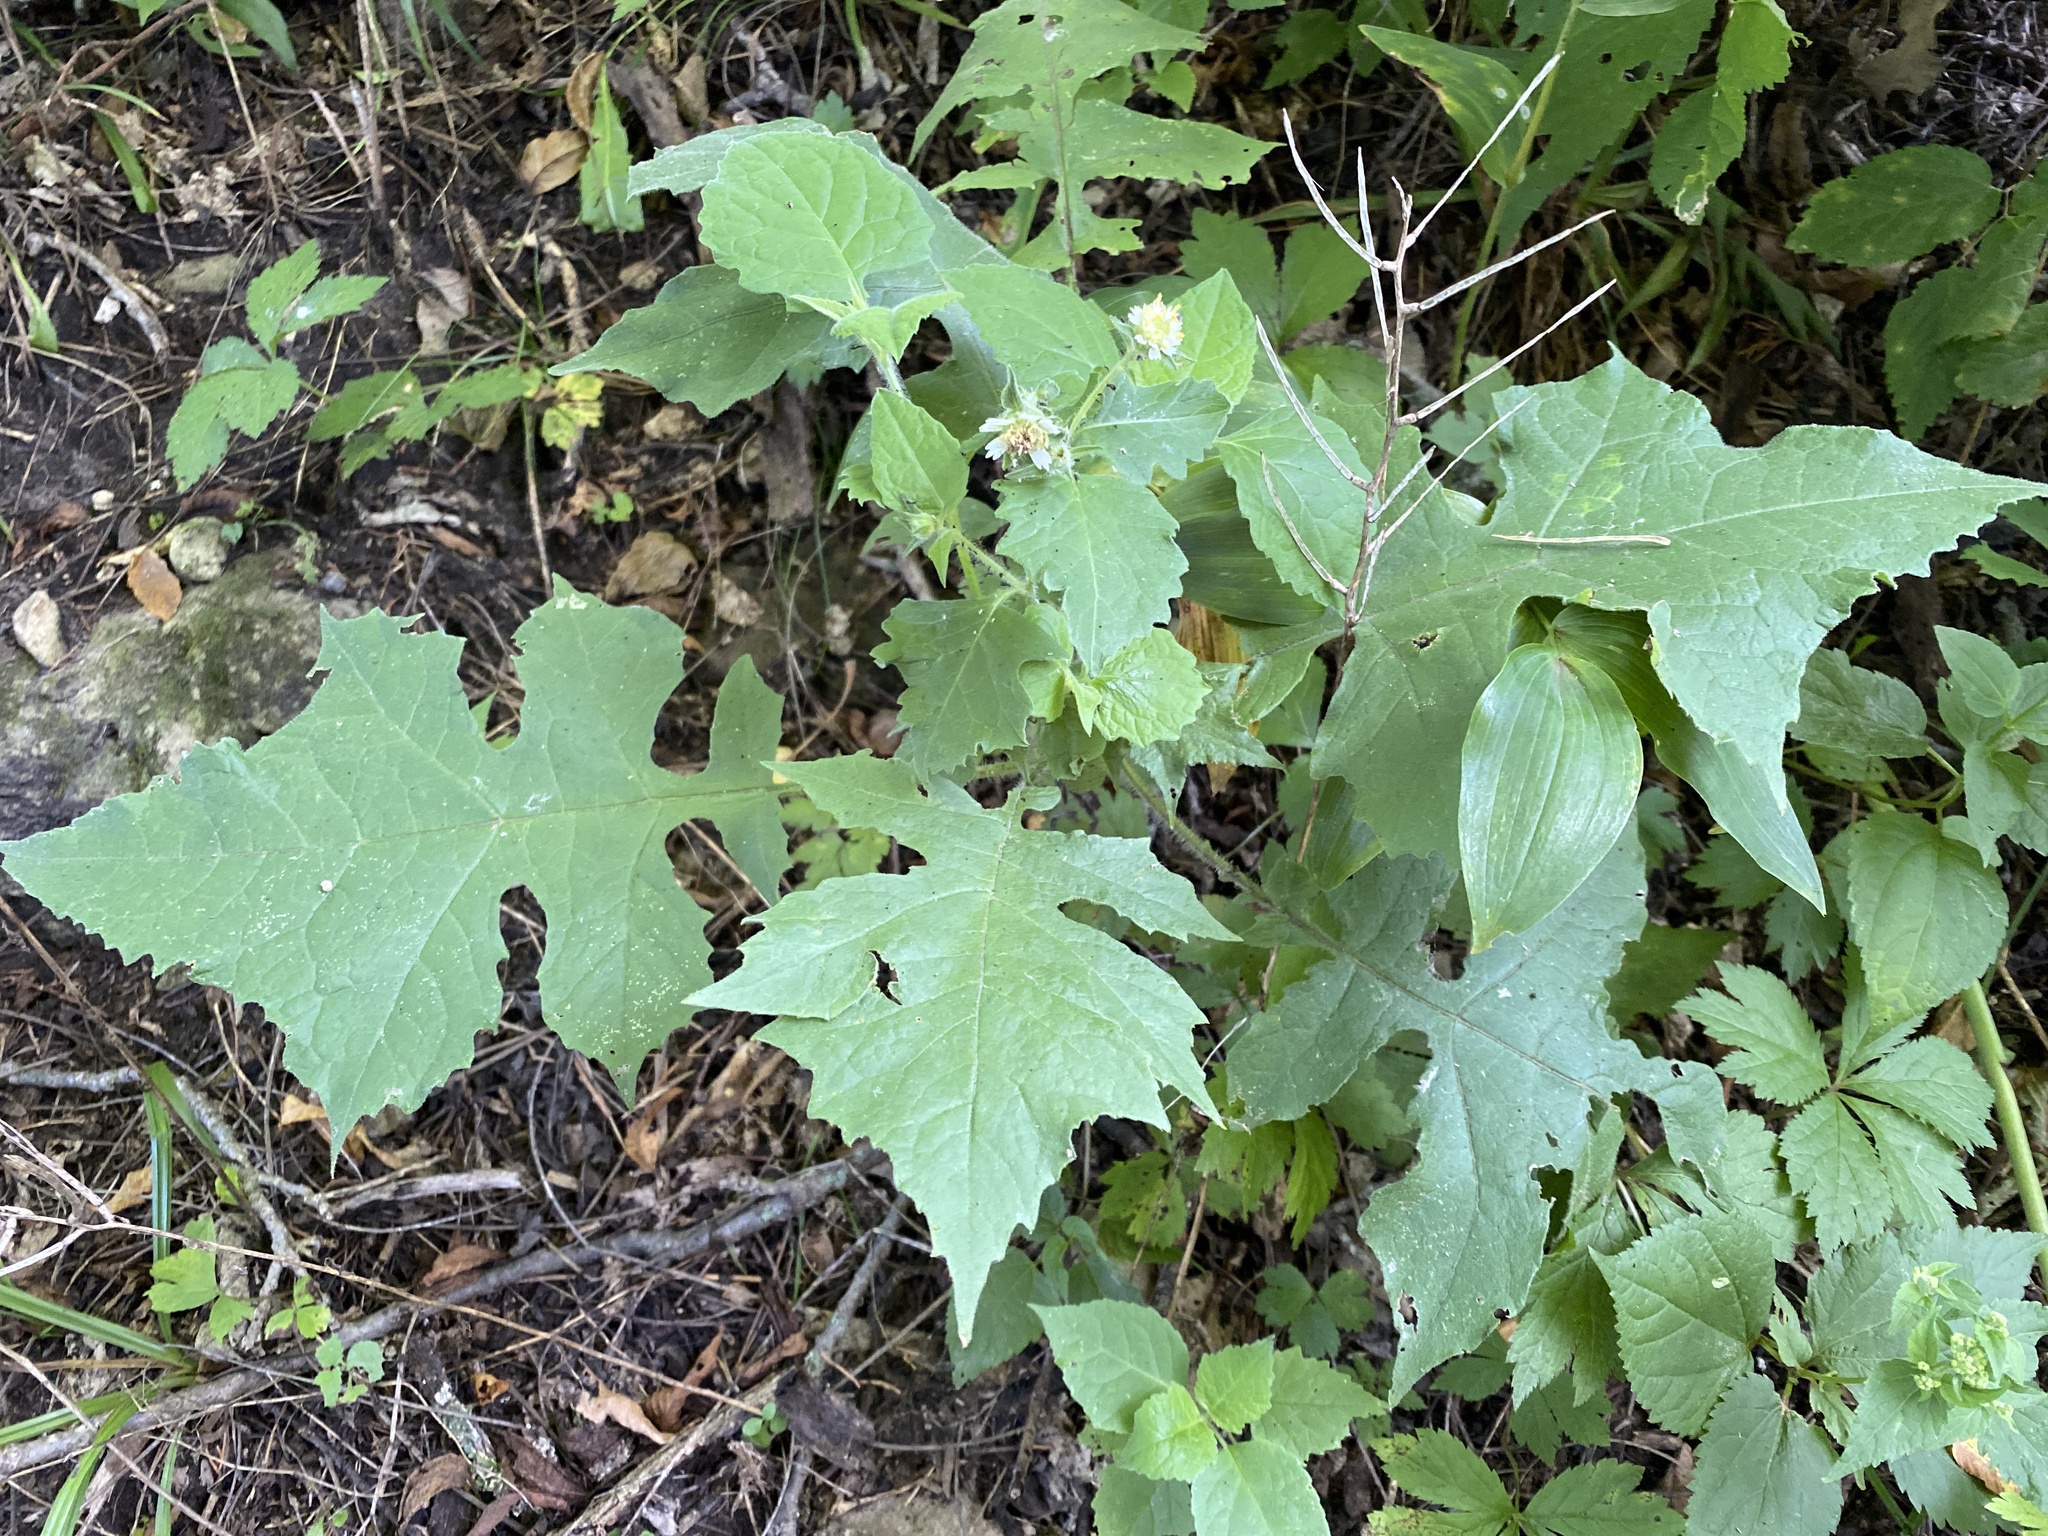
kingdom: Plantae
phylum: Tracheophyta
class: Magnoliopsida
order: Asterales
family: Asteraceae
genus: Polymnia
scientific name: Polymnia canadensis
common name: Pale-flowered leafcup
